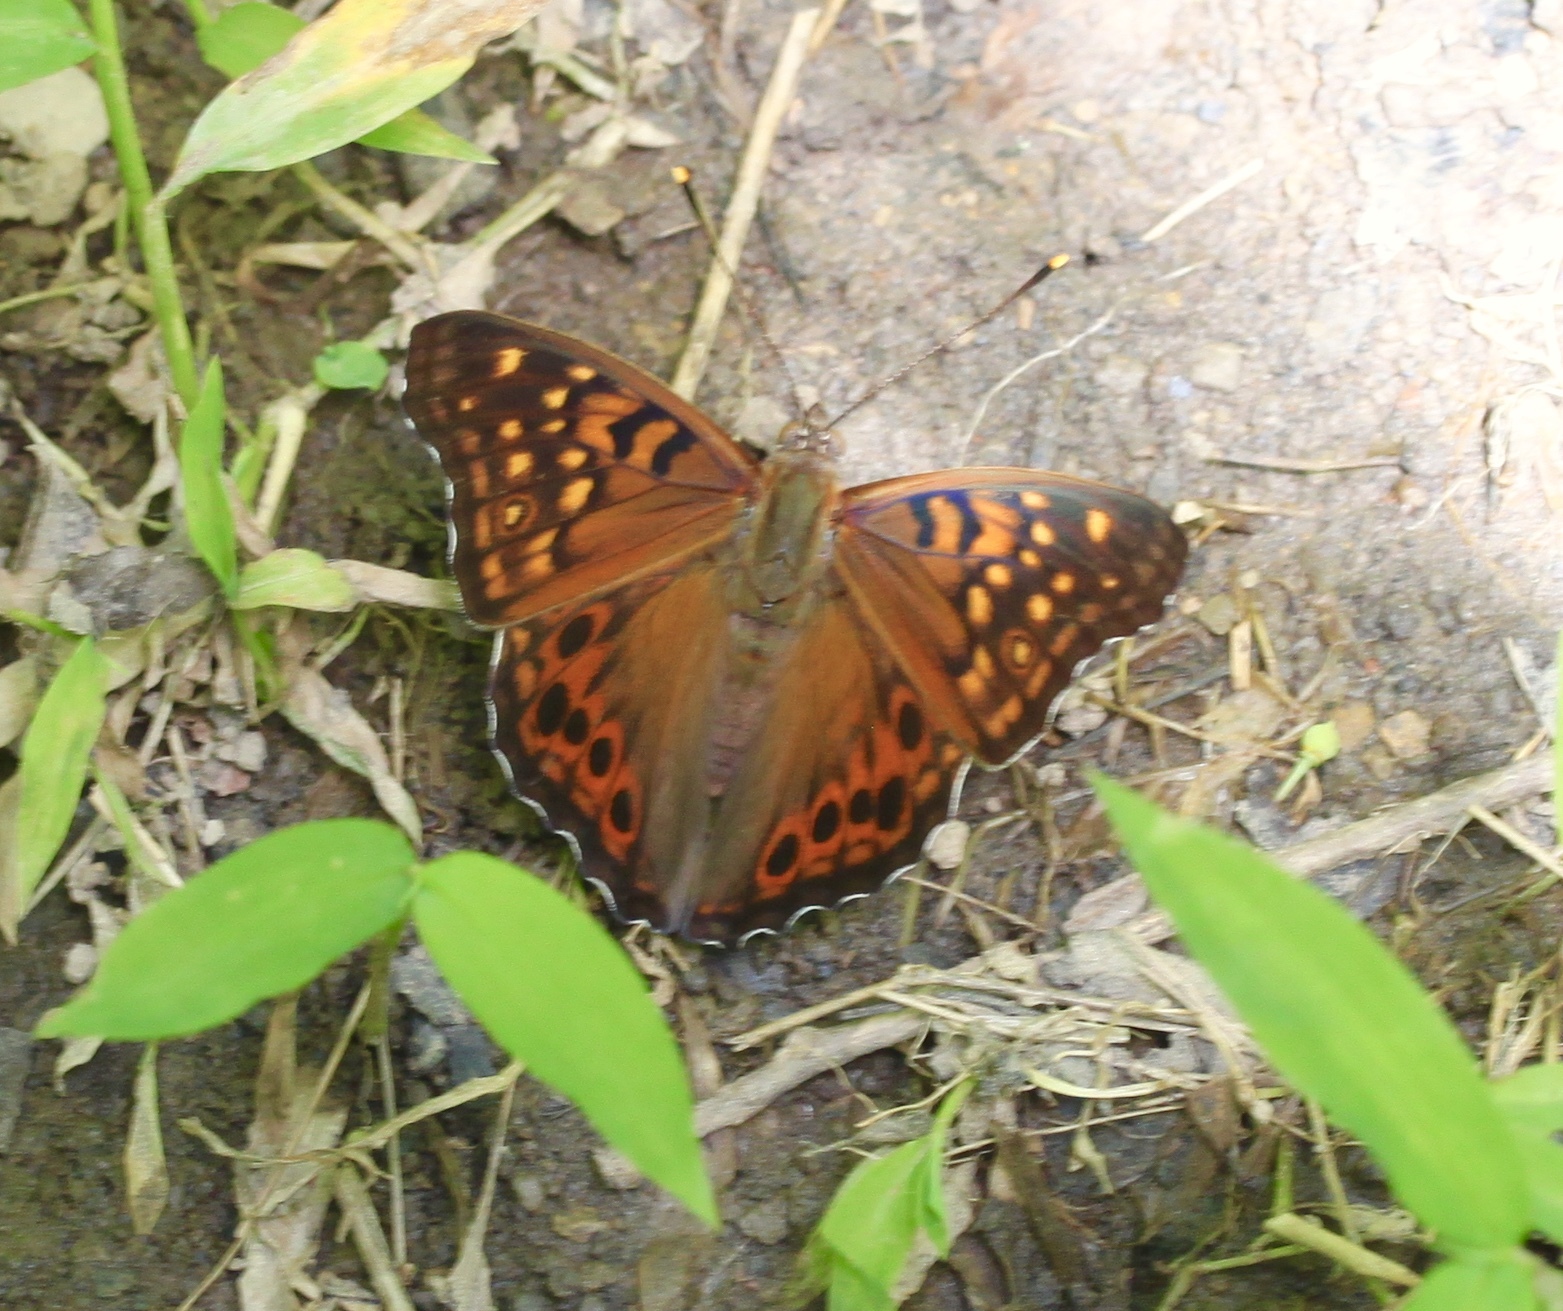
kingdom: Animalia
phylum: Arthropoda
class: Insecta
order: Lepidoptera
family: Nymphalidae
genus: Asterocampa
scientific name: Asterocampa clyton
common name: Tawny emperor
